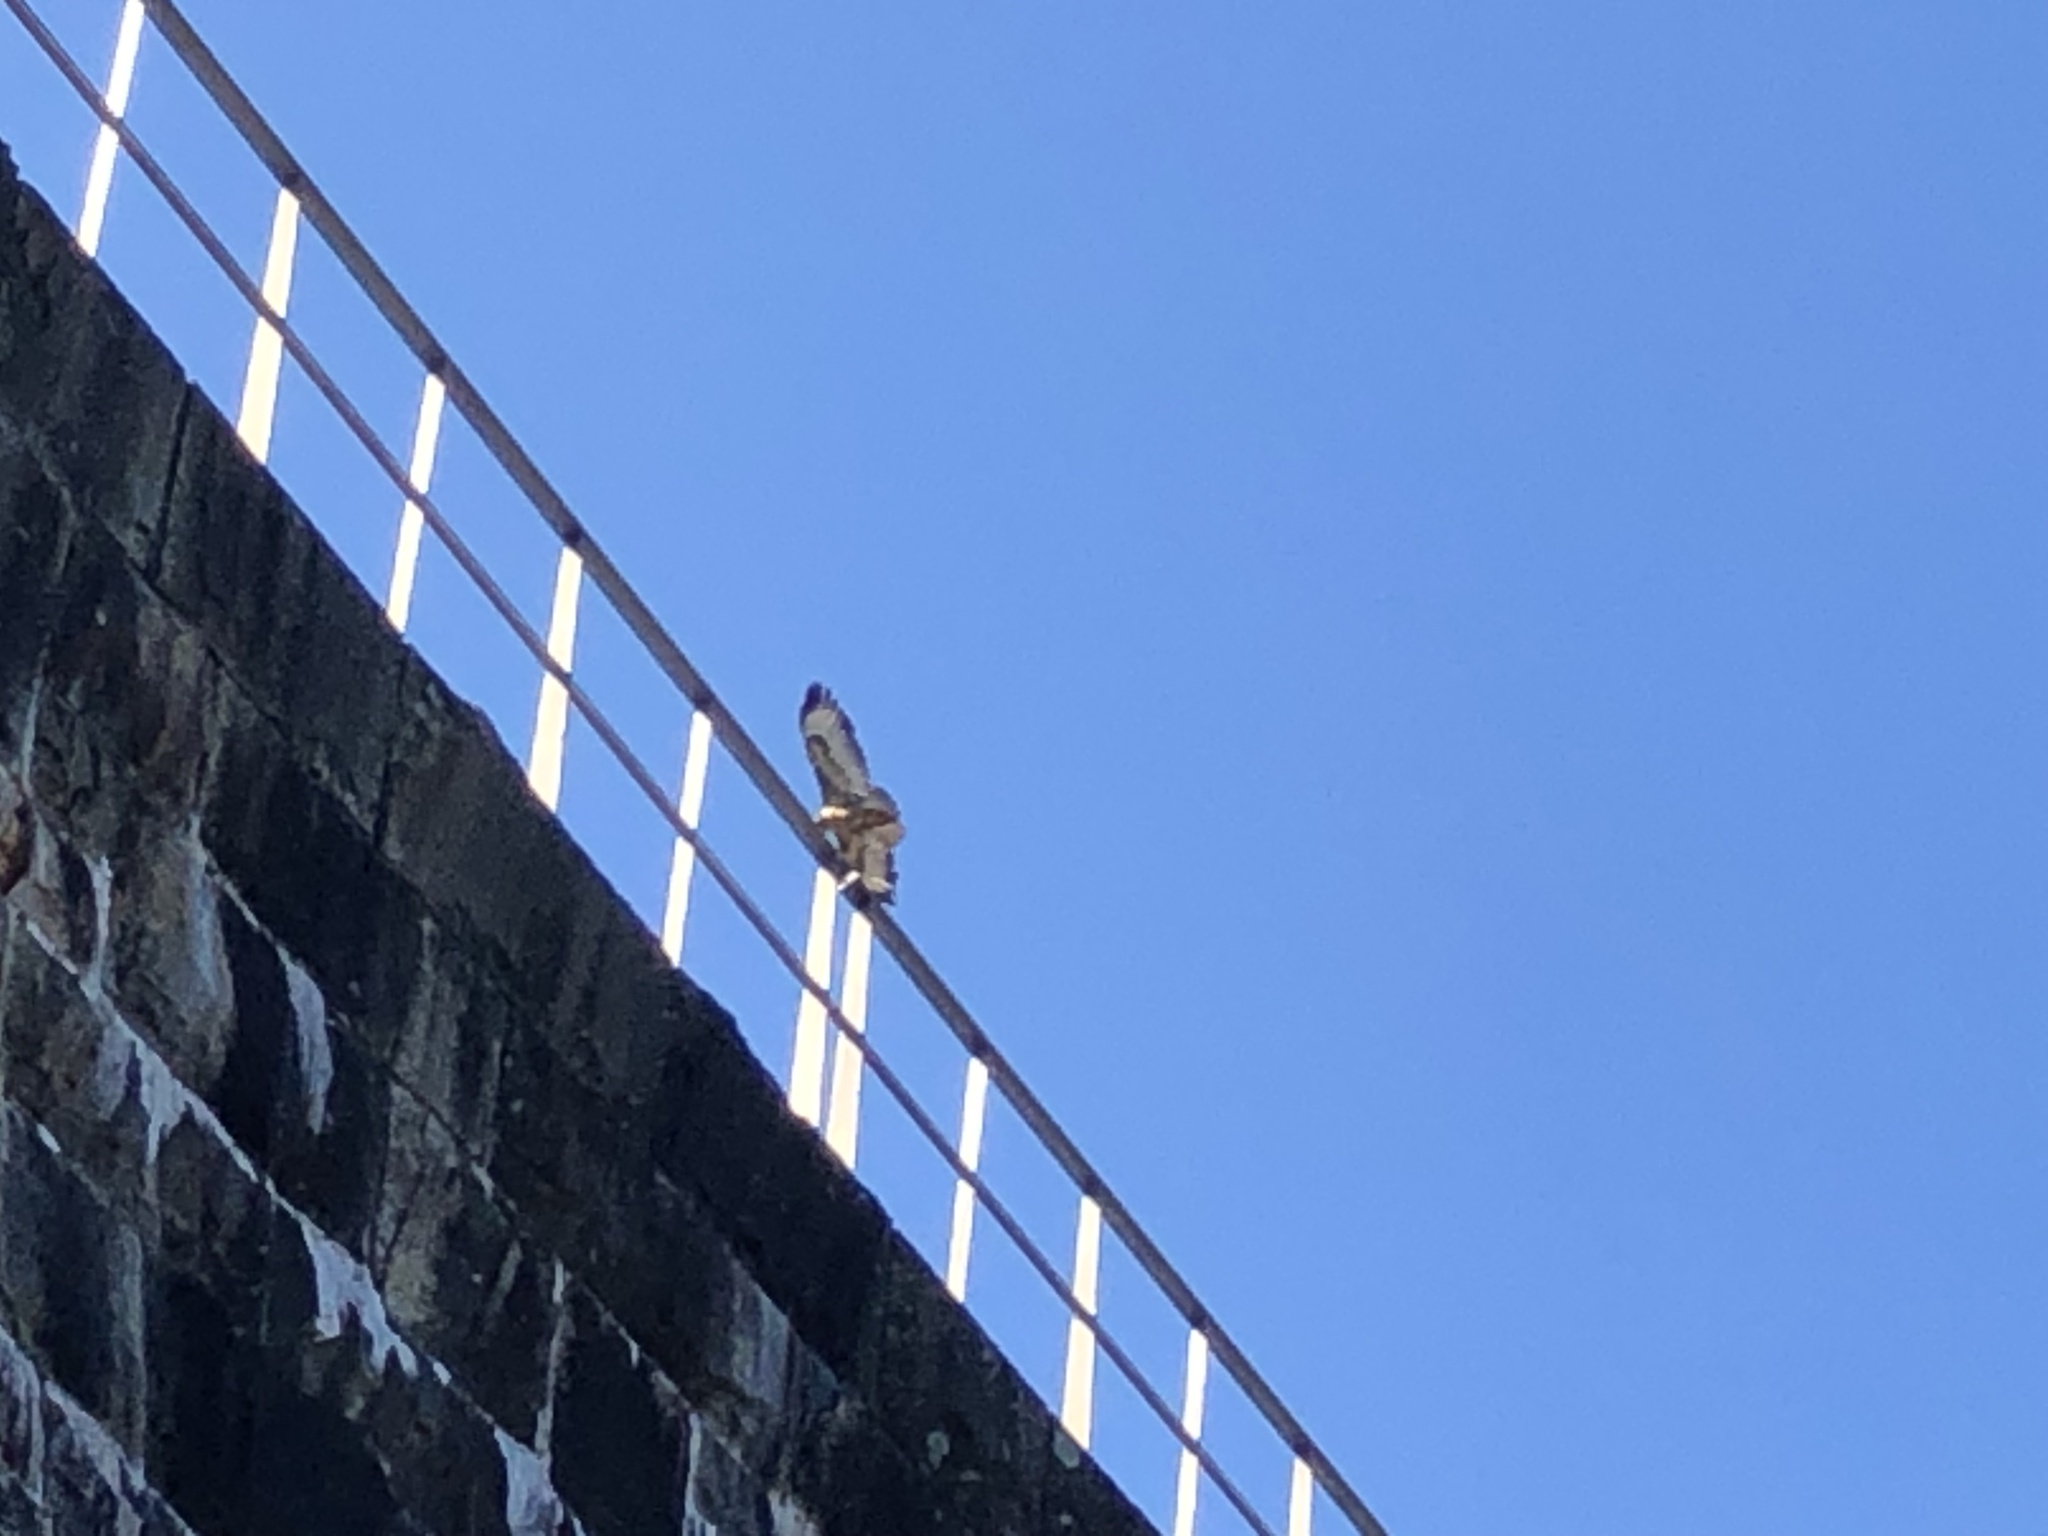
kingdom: Animalia
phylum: Chordata
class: Aves
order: Accipitriformes
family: Accipitridae
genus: Buteo
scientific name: Buteo trizonatus
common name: Forest buzzard
